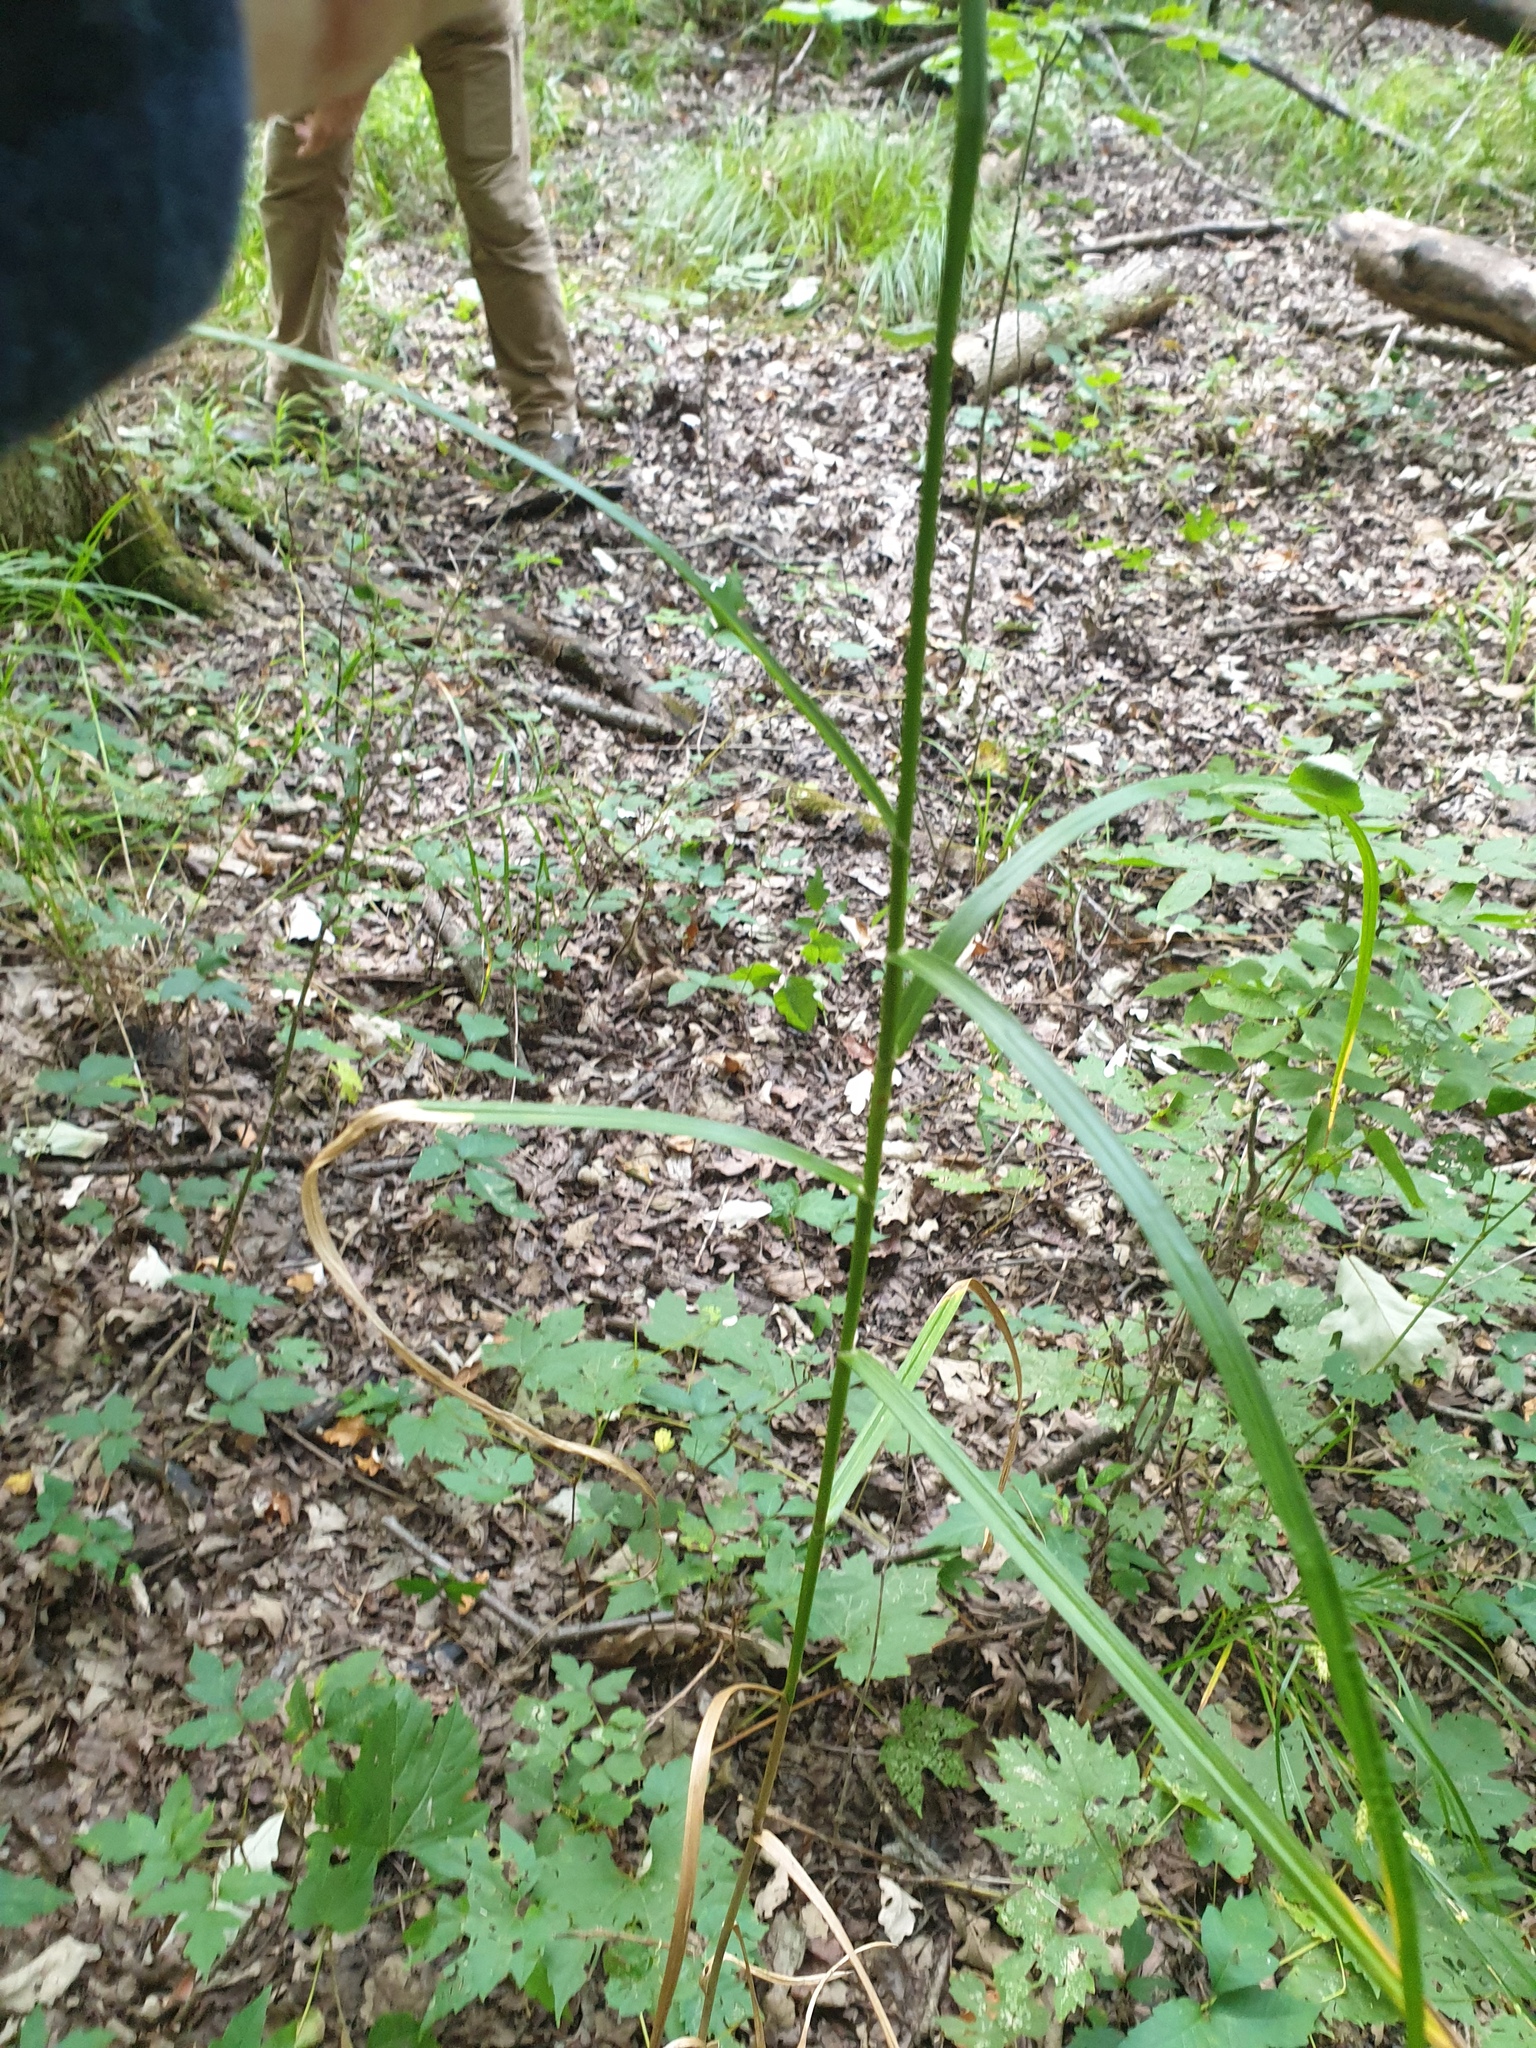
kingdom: Plantae
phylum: Tracheophyta
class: Liliopsida
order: Poales
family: Cyperaceae
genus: Carex
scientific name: Carex muskingumensis
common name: Muskingum sedge
